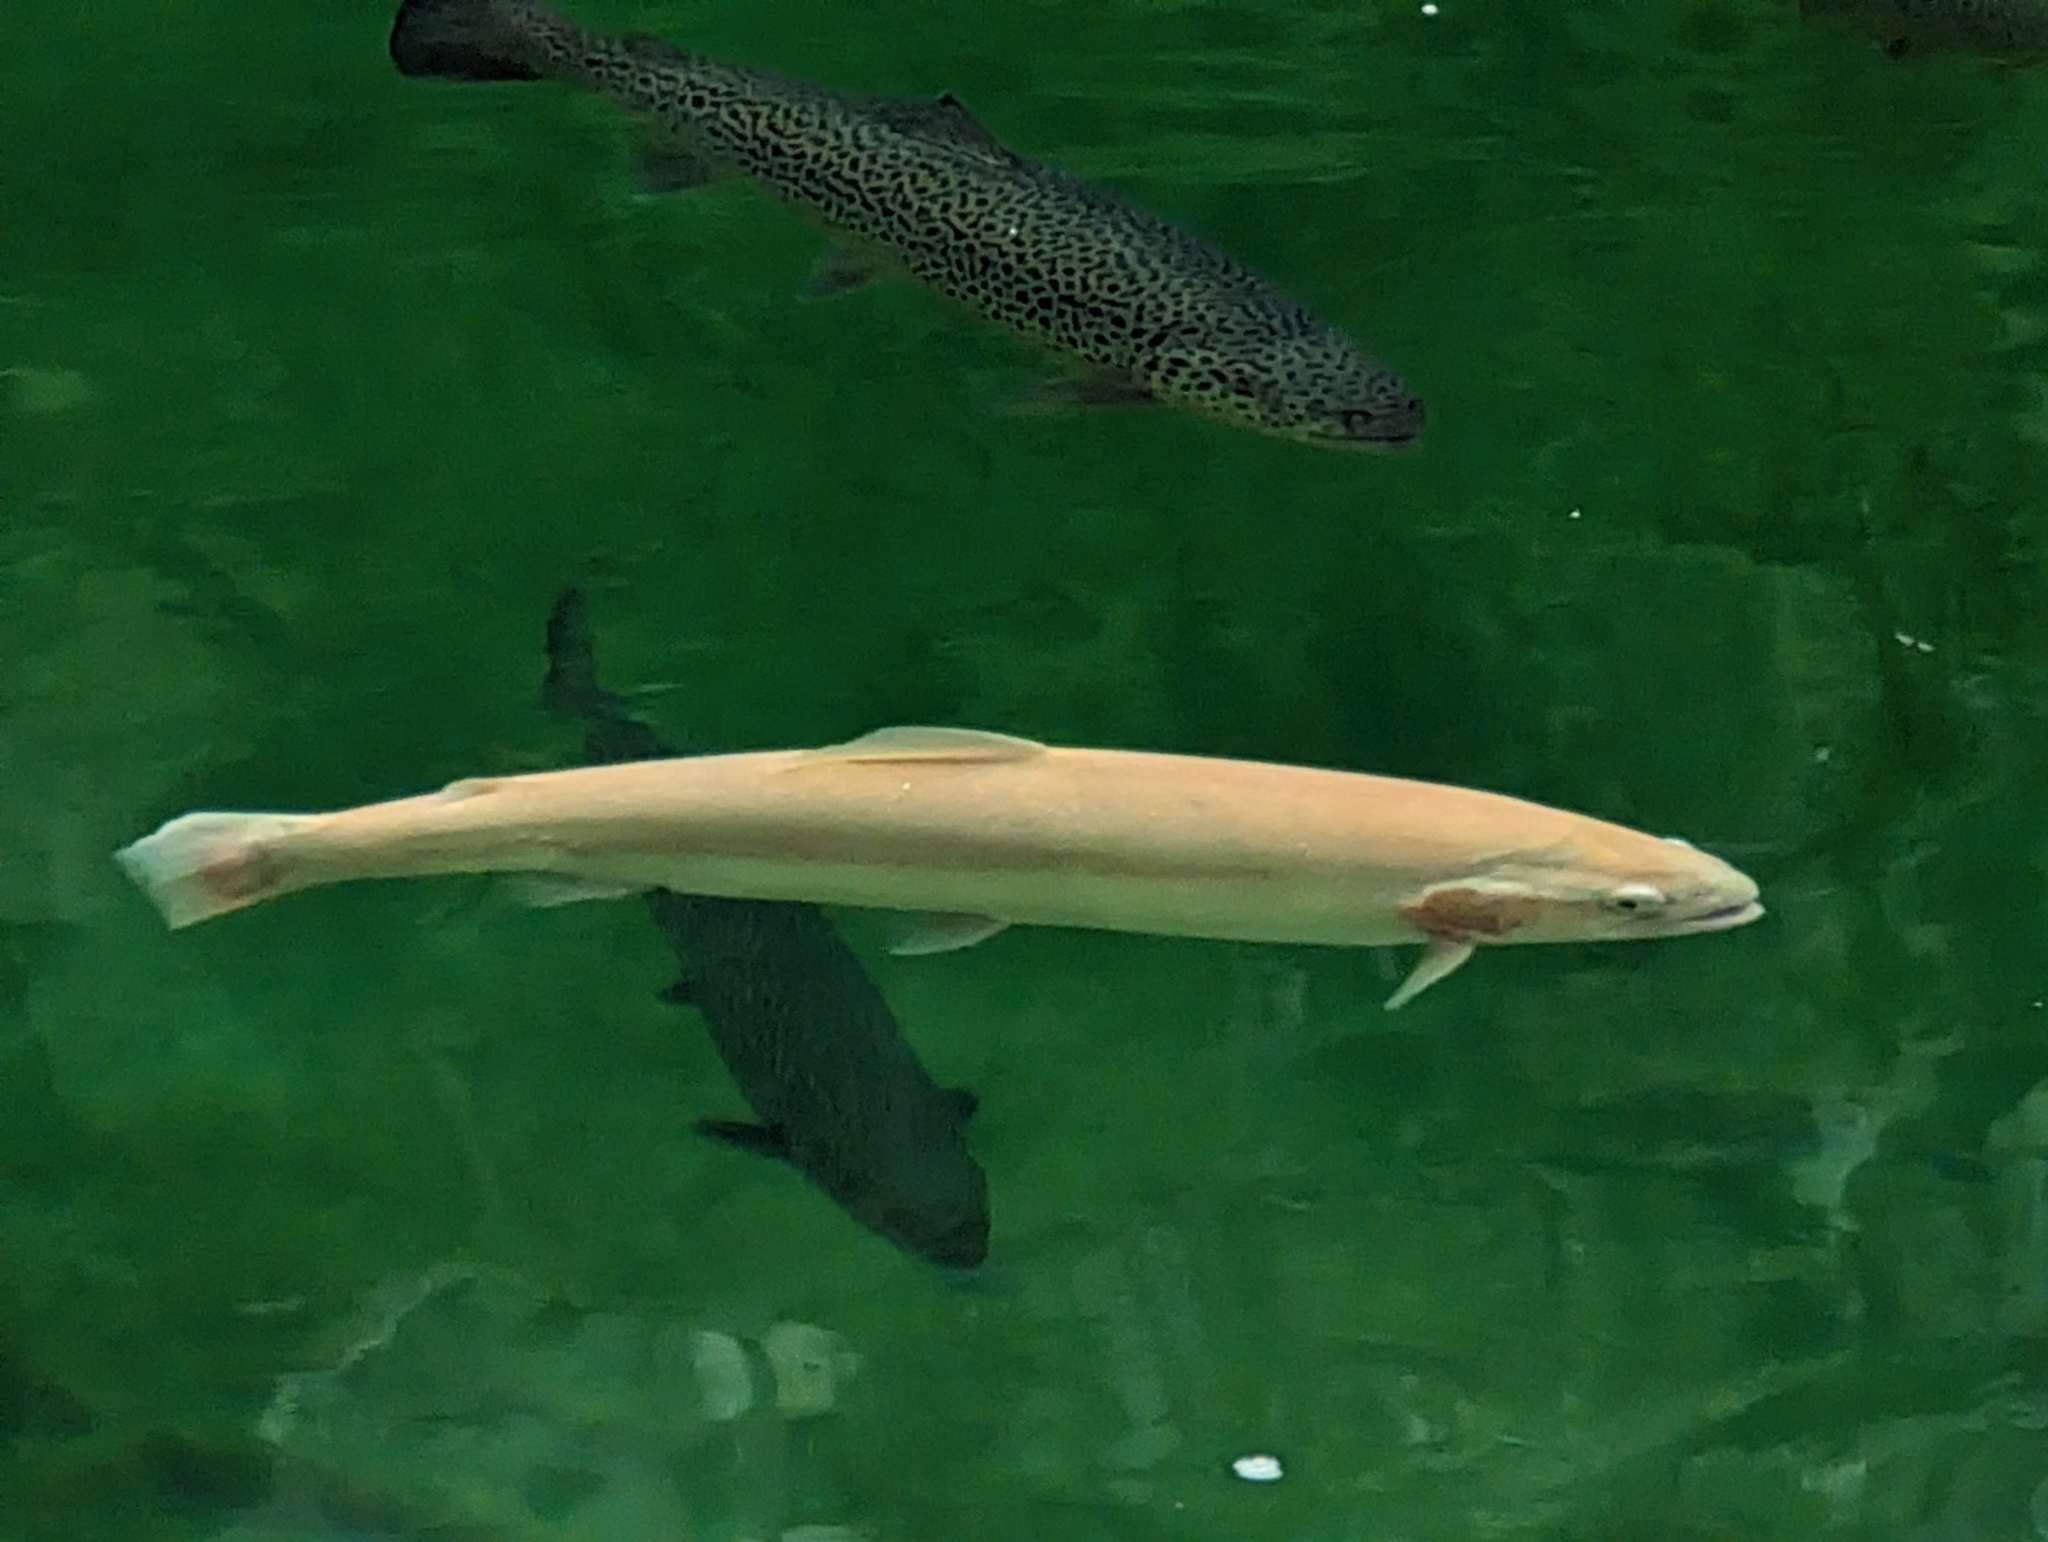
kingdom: Animalia
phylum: Chordata
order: Salmoniformes
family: Salmonidae
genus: Oncorhynchus
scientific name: Oncorhynchus mykiss
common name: Rainbow trout
